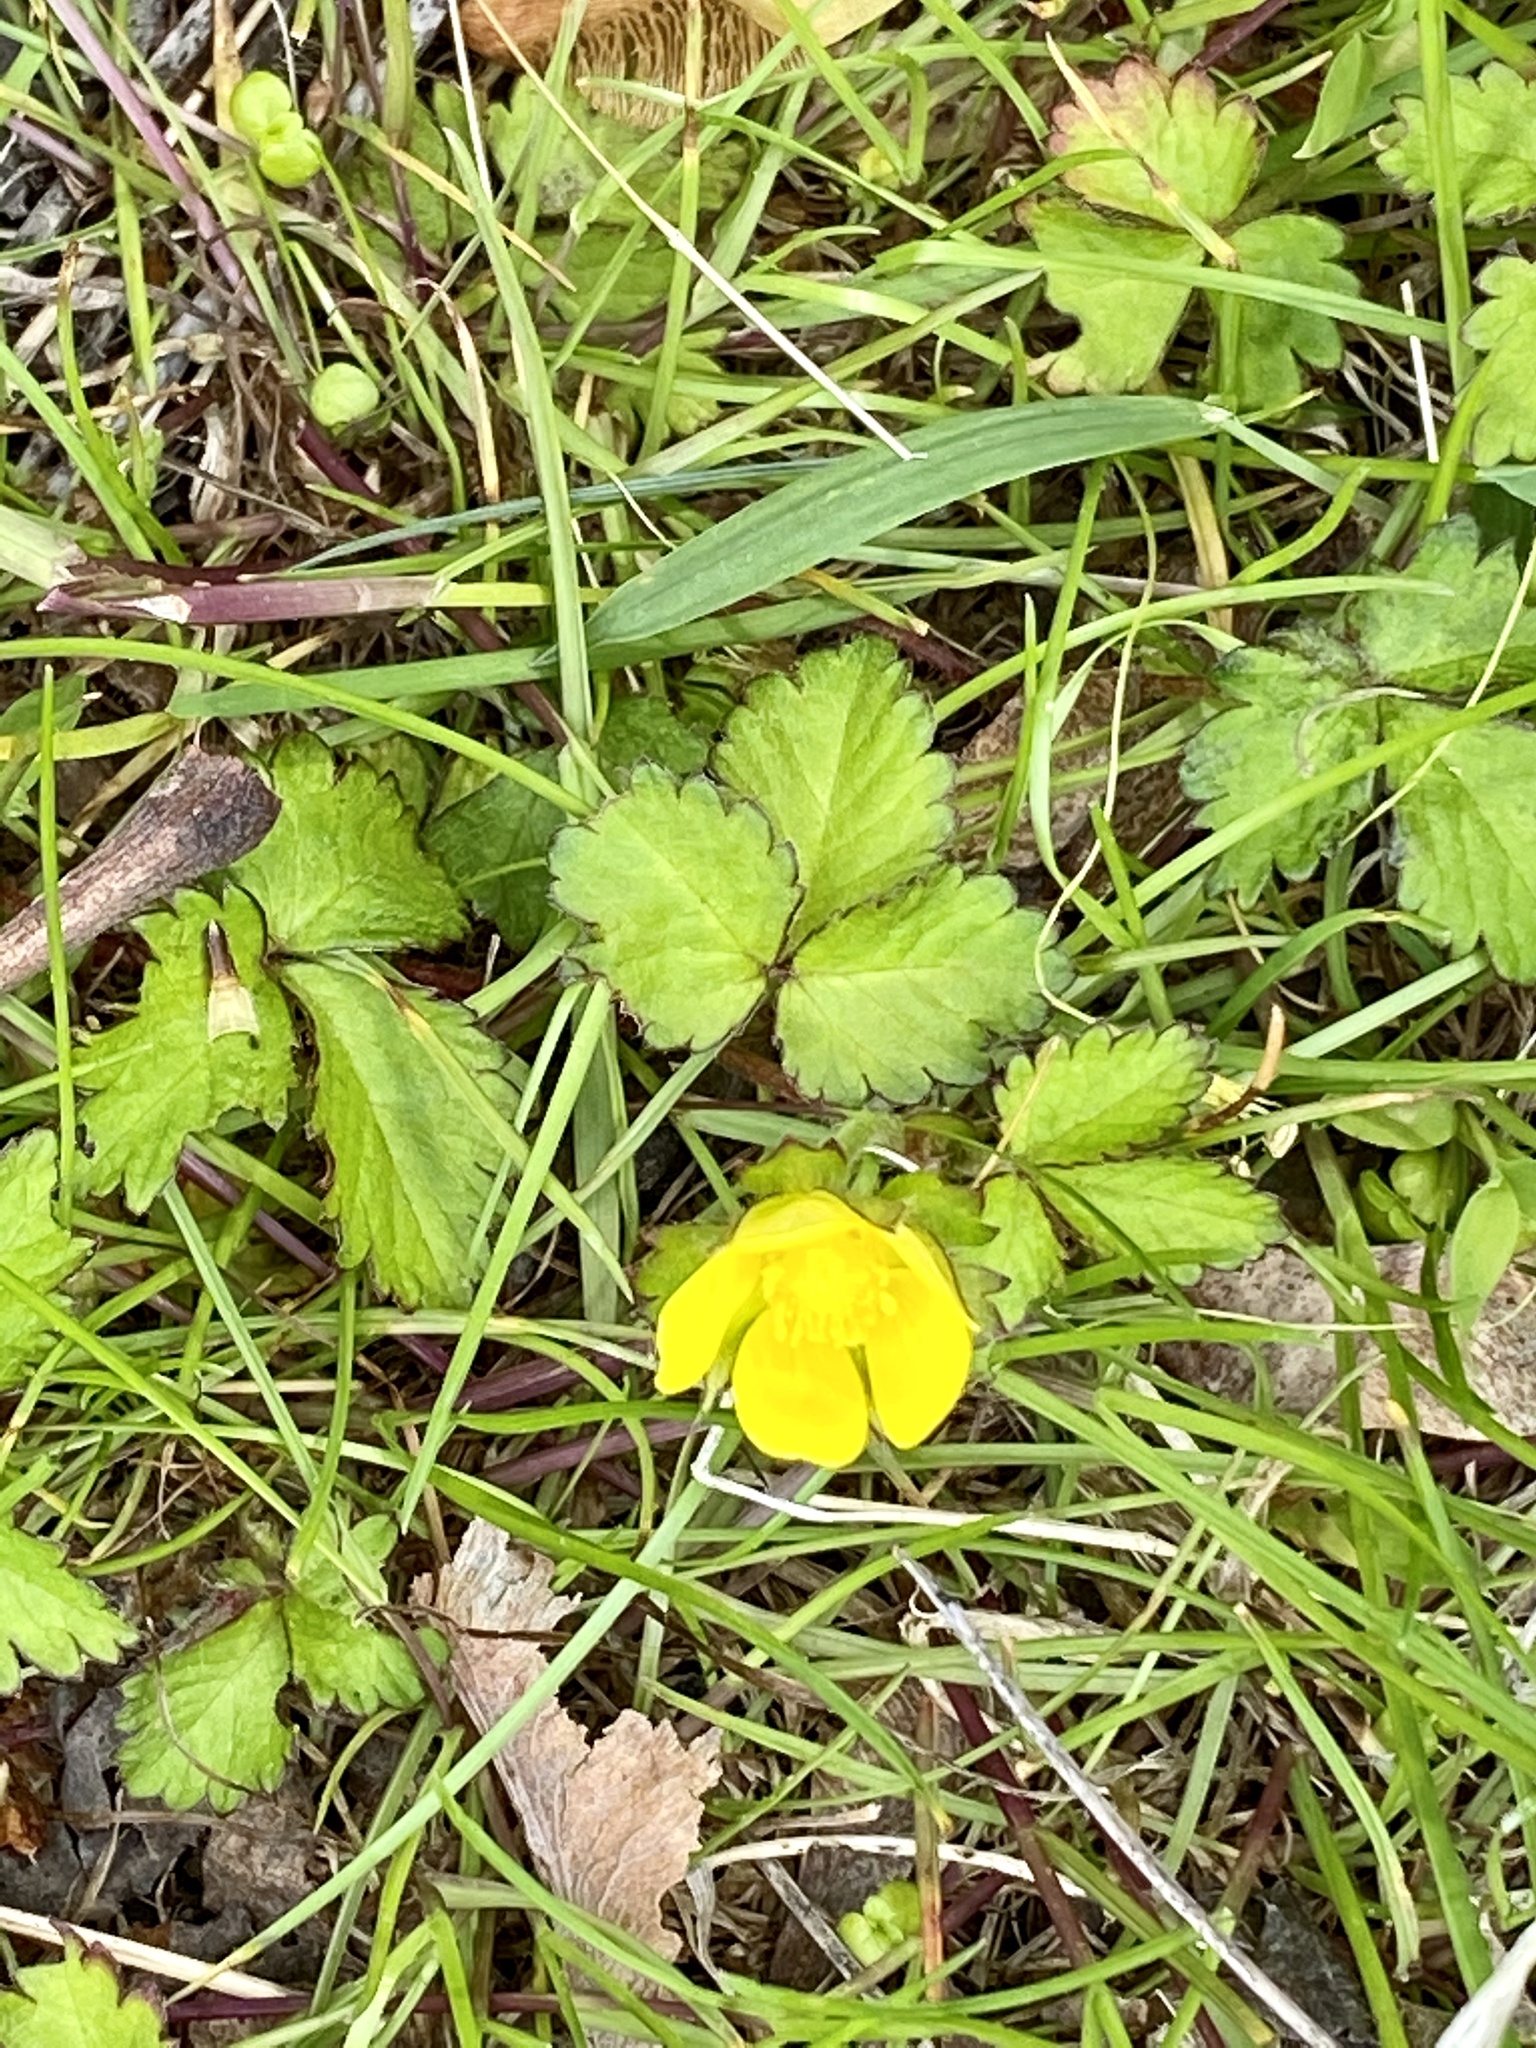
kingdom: Plantae
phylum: Tracheophyta
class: Magnoliopsida
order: Rosales
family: Rosaceae
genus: Potentilla
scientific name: Potentilla indica
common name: Yellow-flowered strawberry
